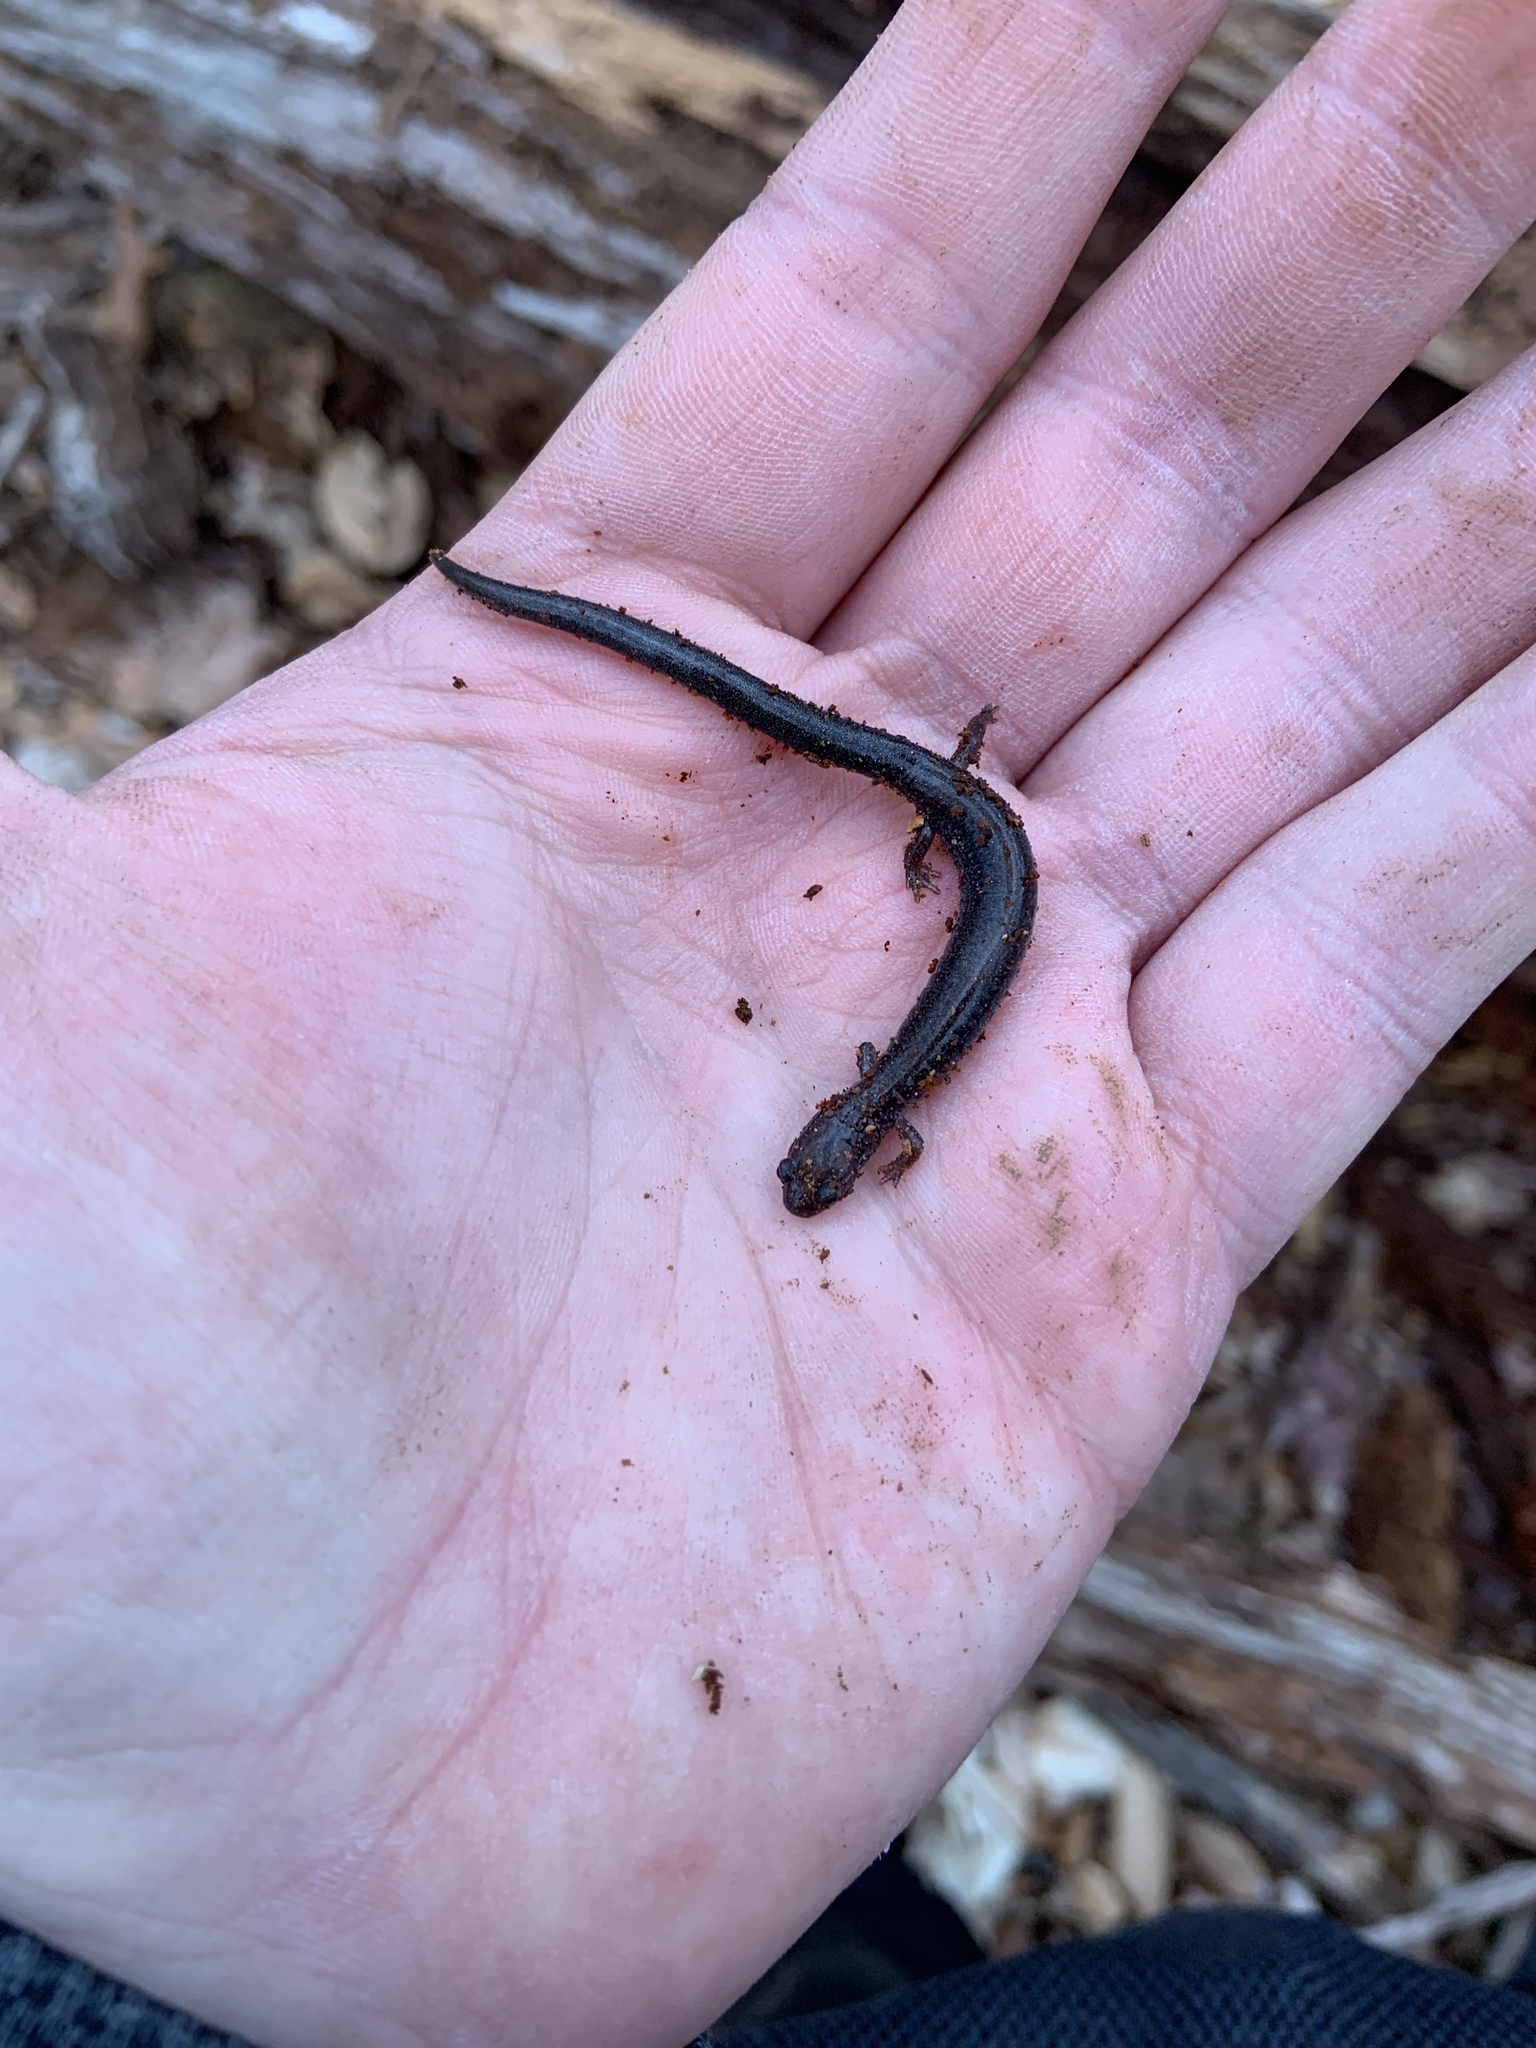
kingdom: Animalia
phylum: Chordata
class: Amphibia
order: Caudata
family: Plethodontidae
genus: Plethodon
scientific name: Plethodon cinereus
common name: Redback salamander
